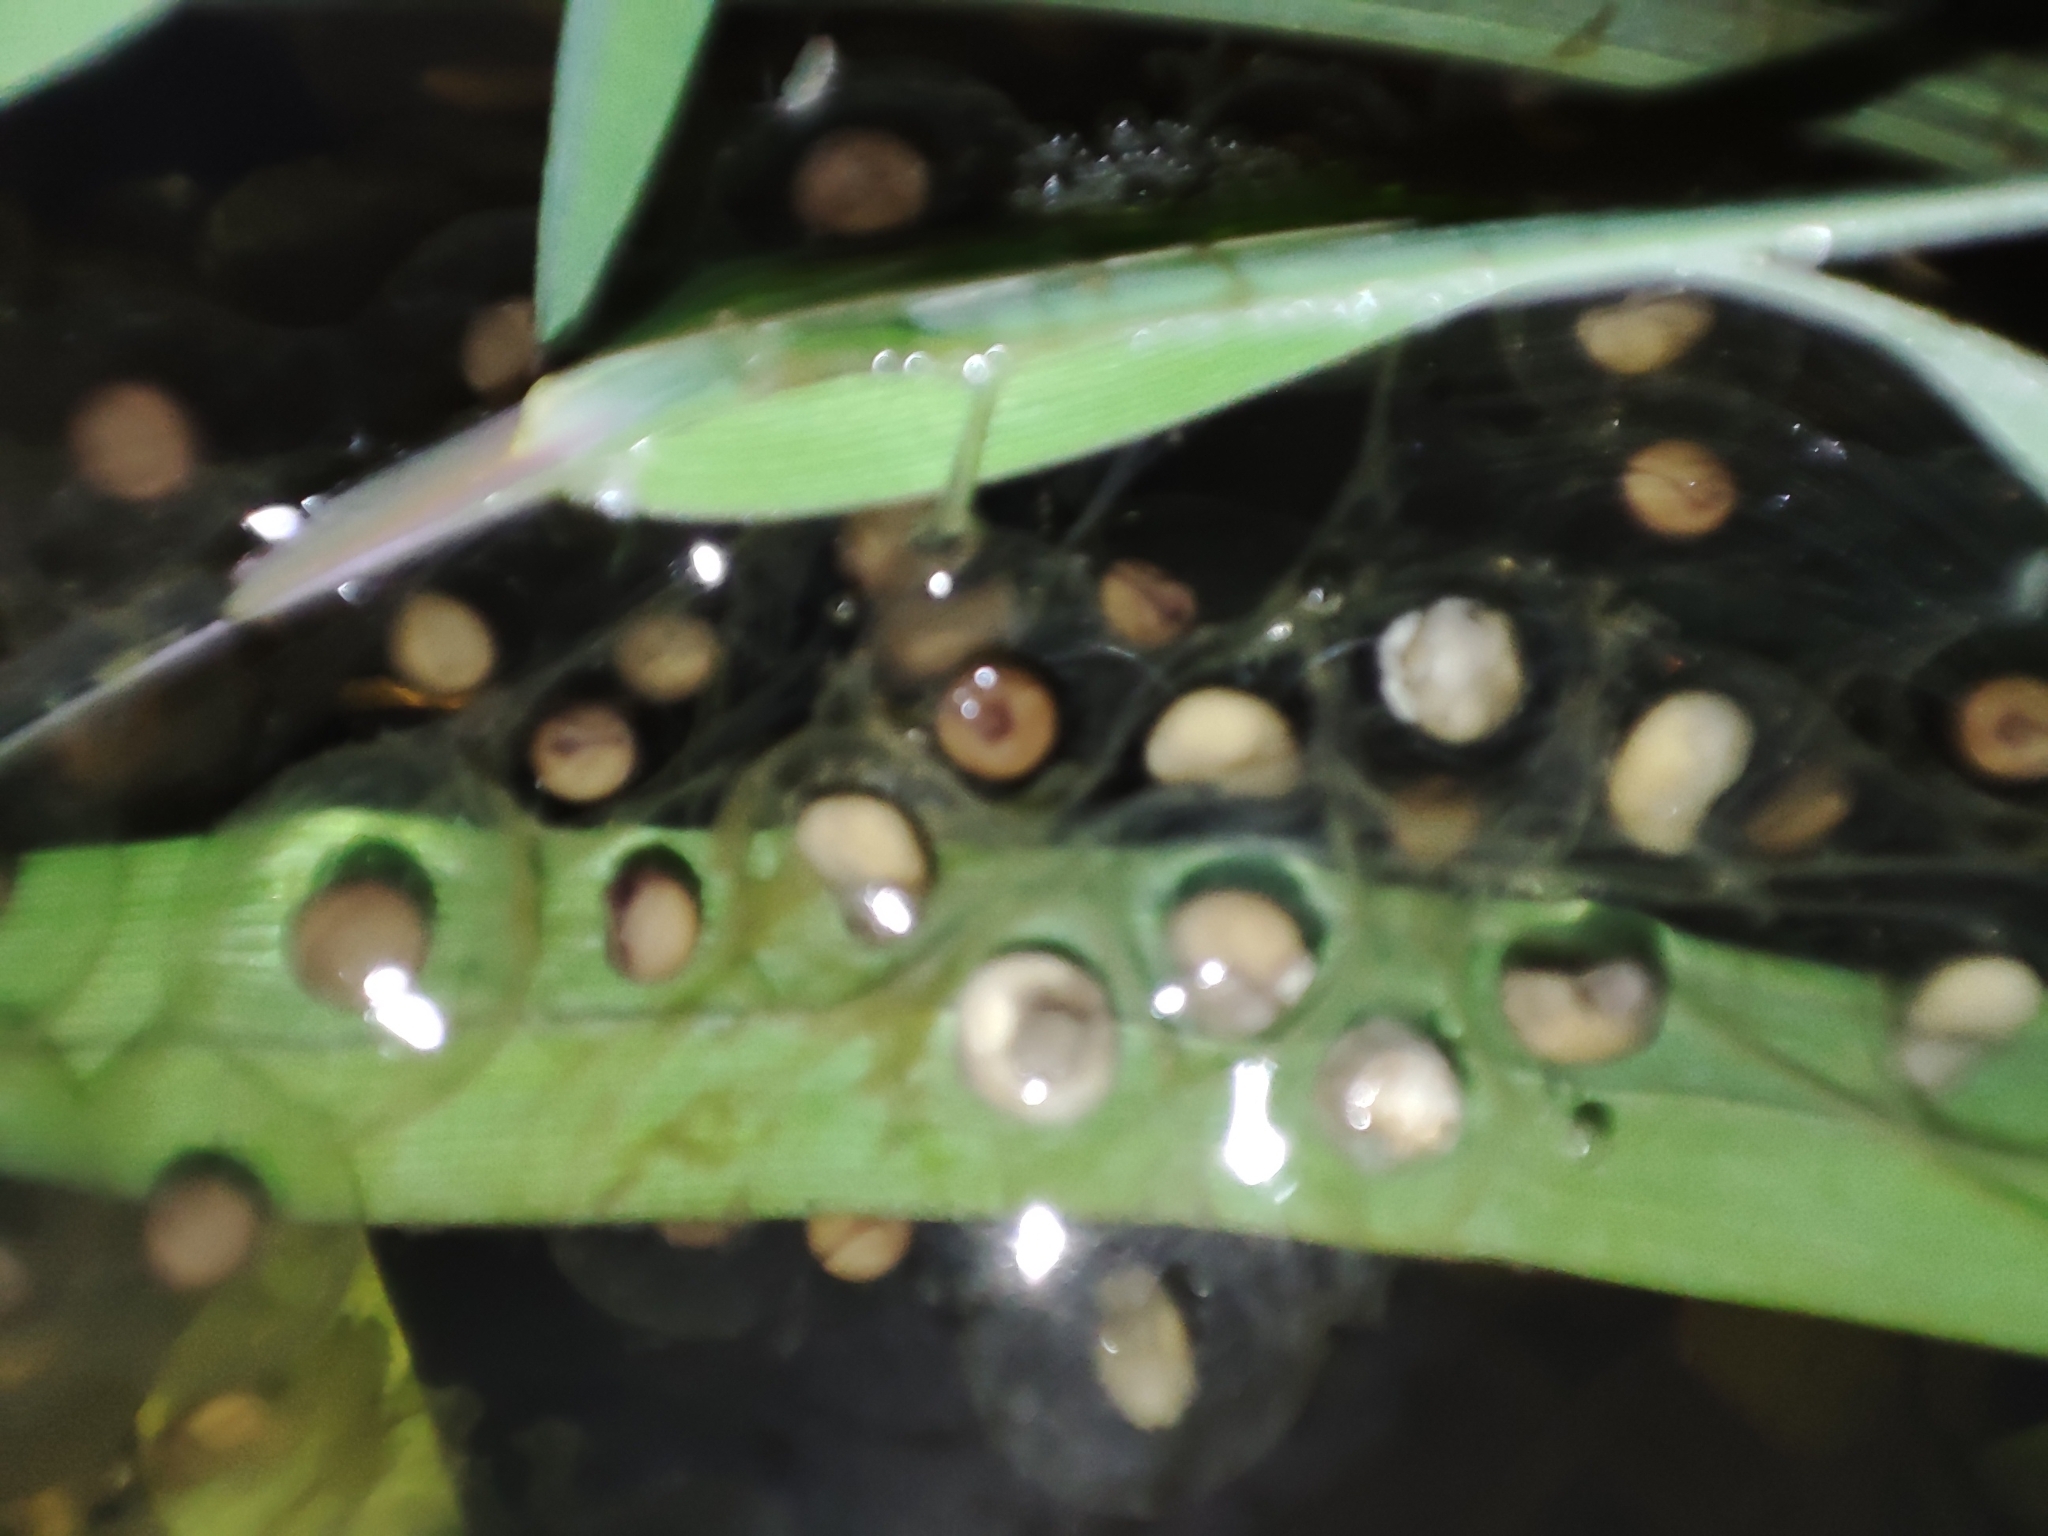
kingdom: Animalia
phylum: Chordata
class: Amphibia
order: Anura
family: Bombinatoridae
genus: Bombina
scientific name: Bombina variegata
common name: Yellow-bellied toad
